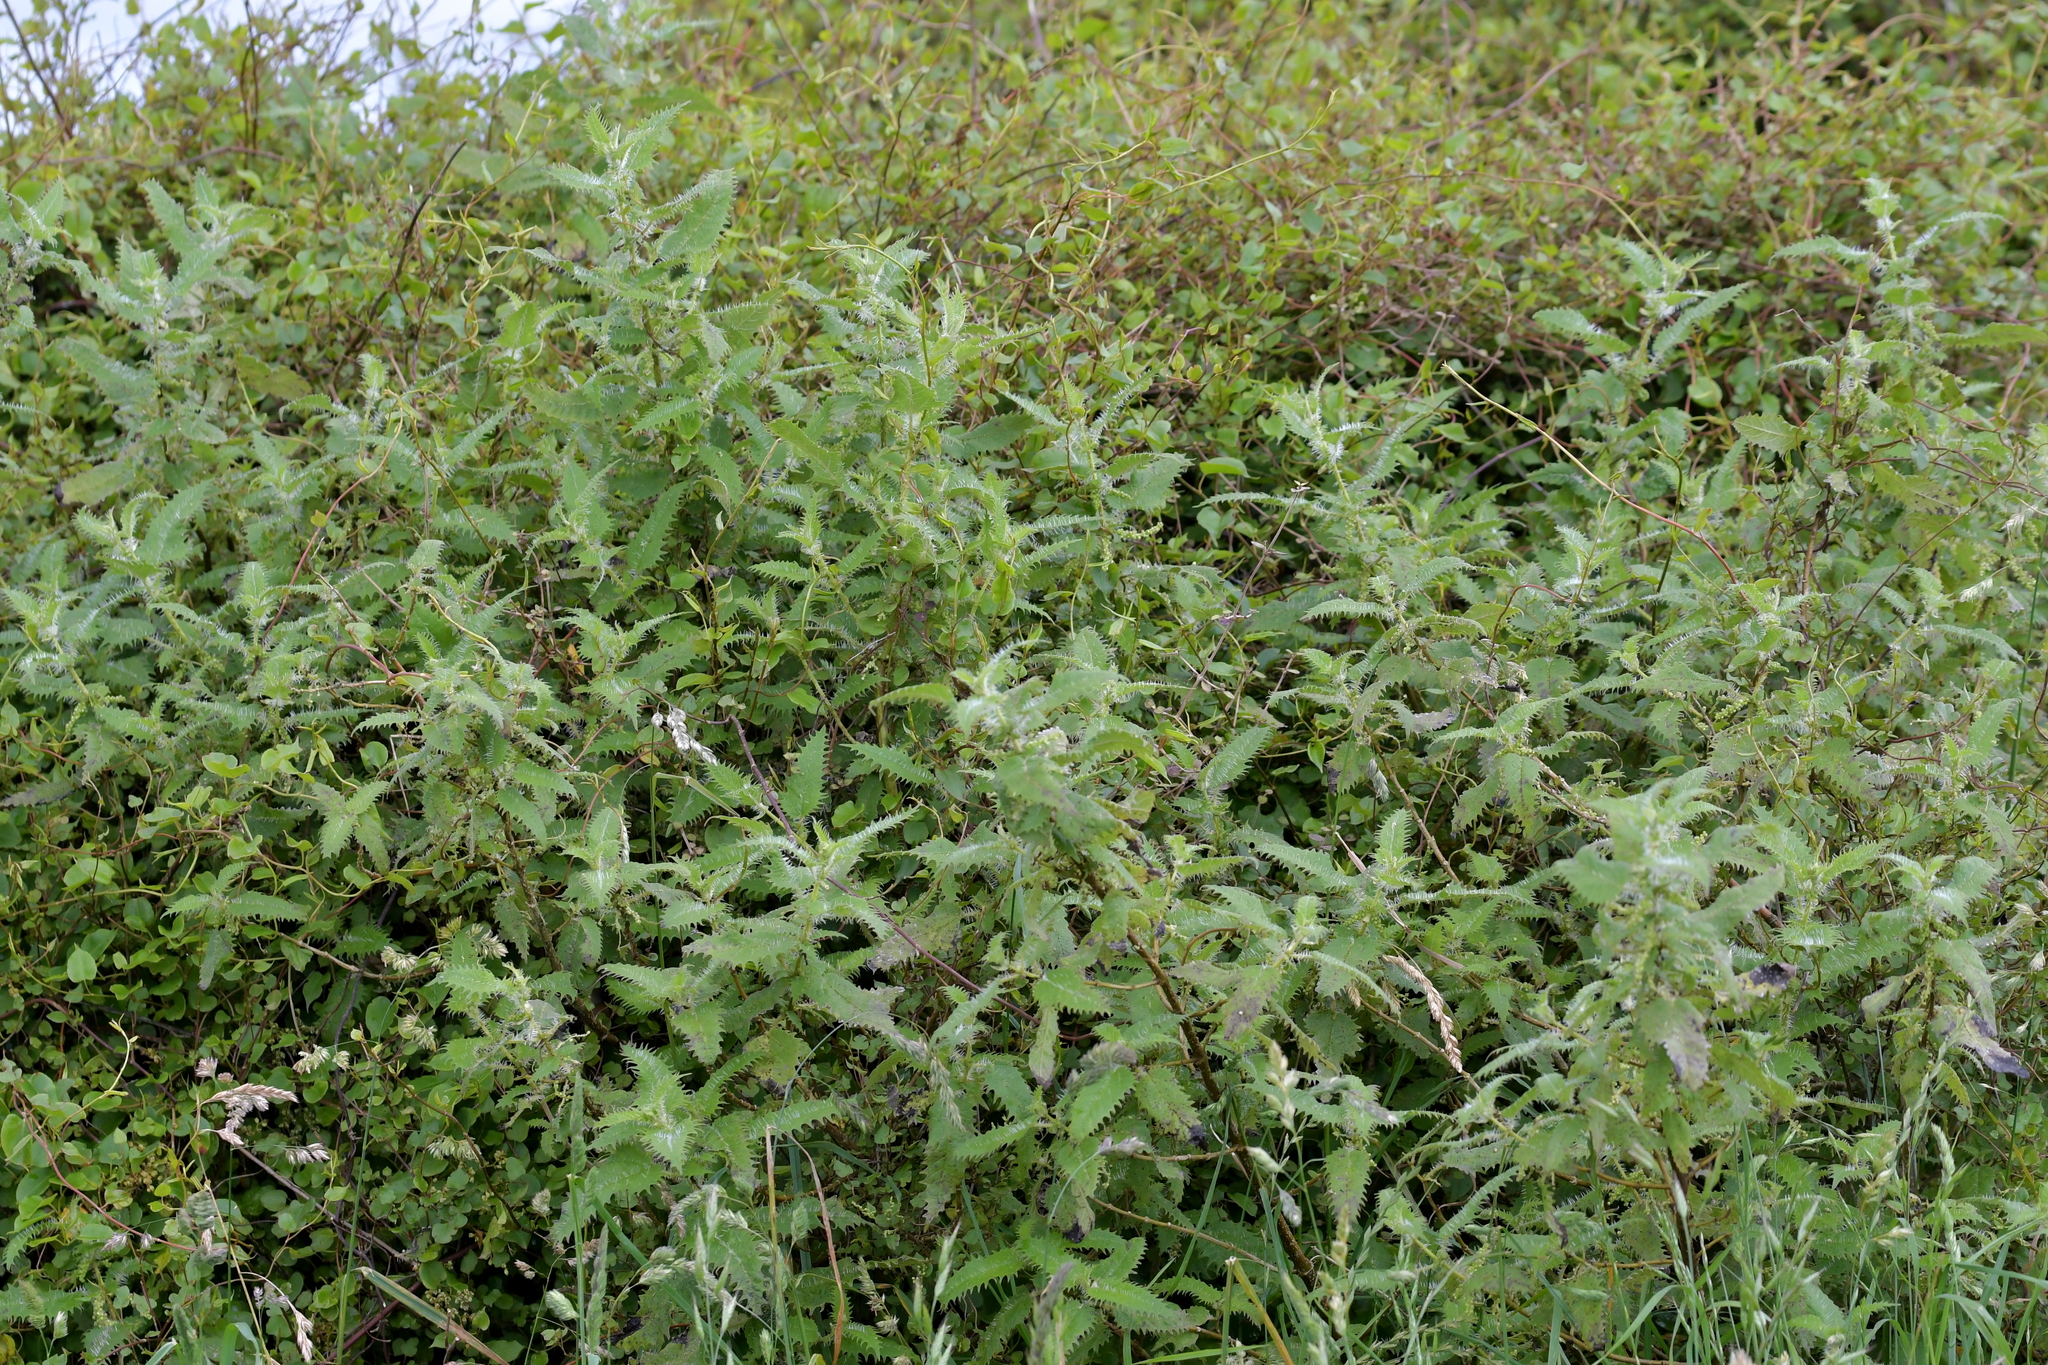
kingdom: Plantae
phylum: Tracheophyta
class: Magnoliopsida
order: Rosales
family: Urticaceae
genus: Urtica
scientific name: Urtica ferox
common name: Tree nettle
